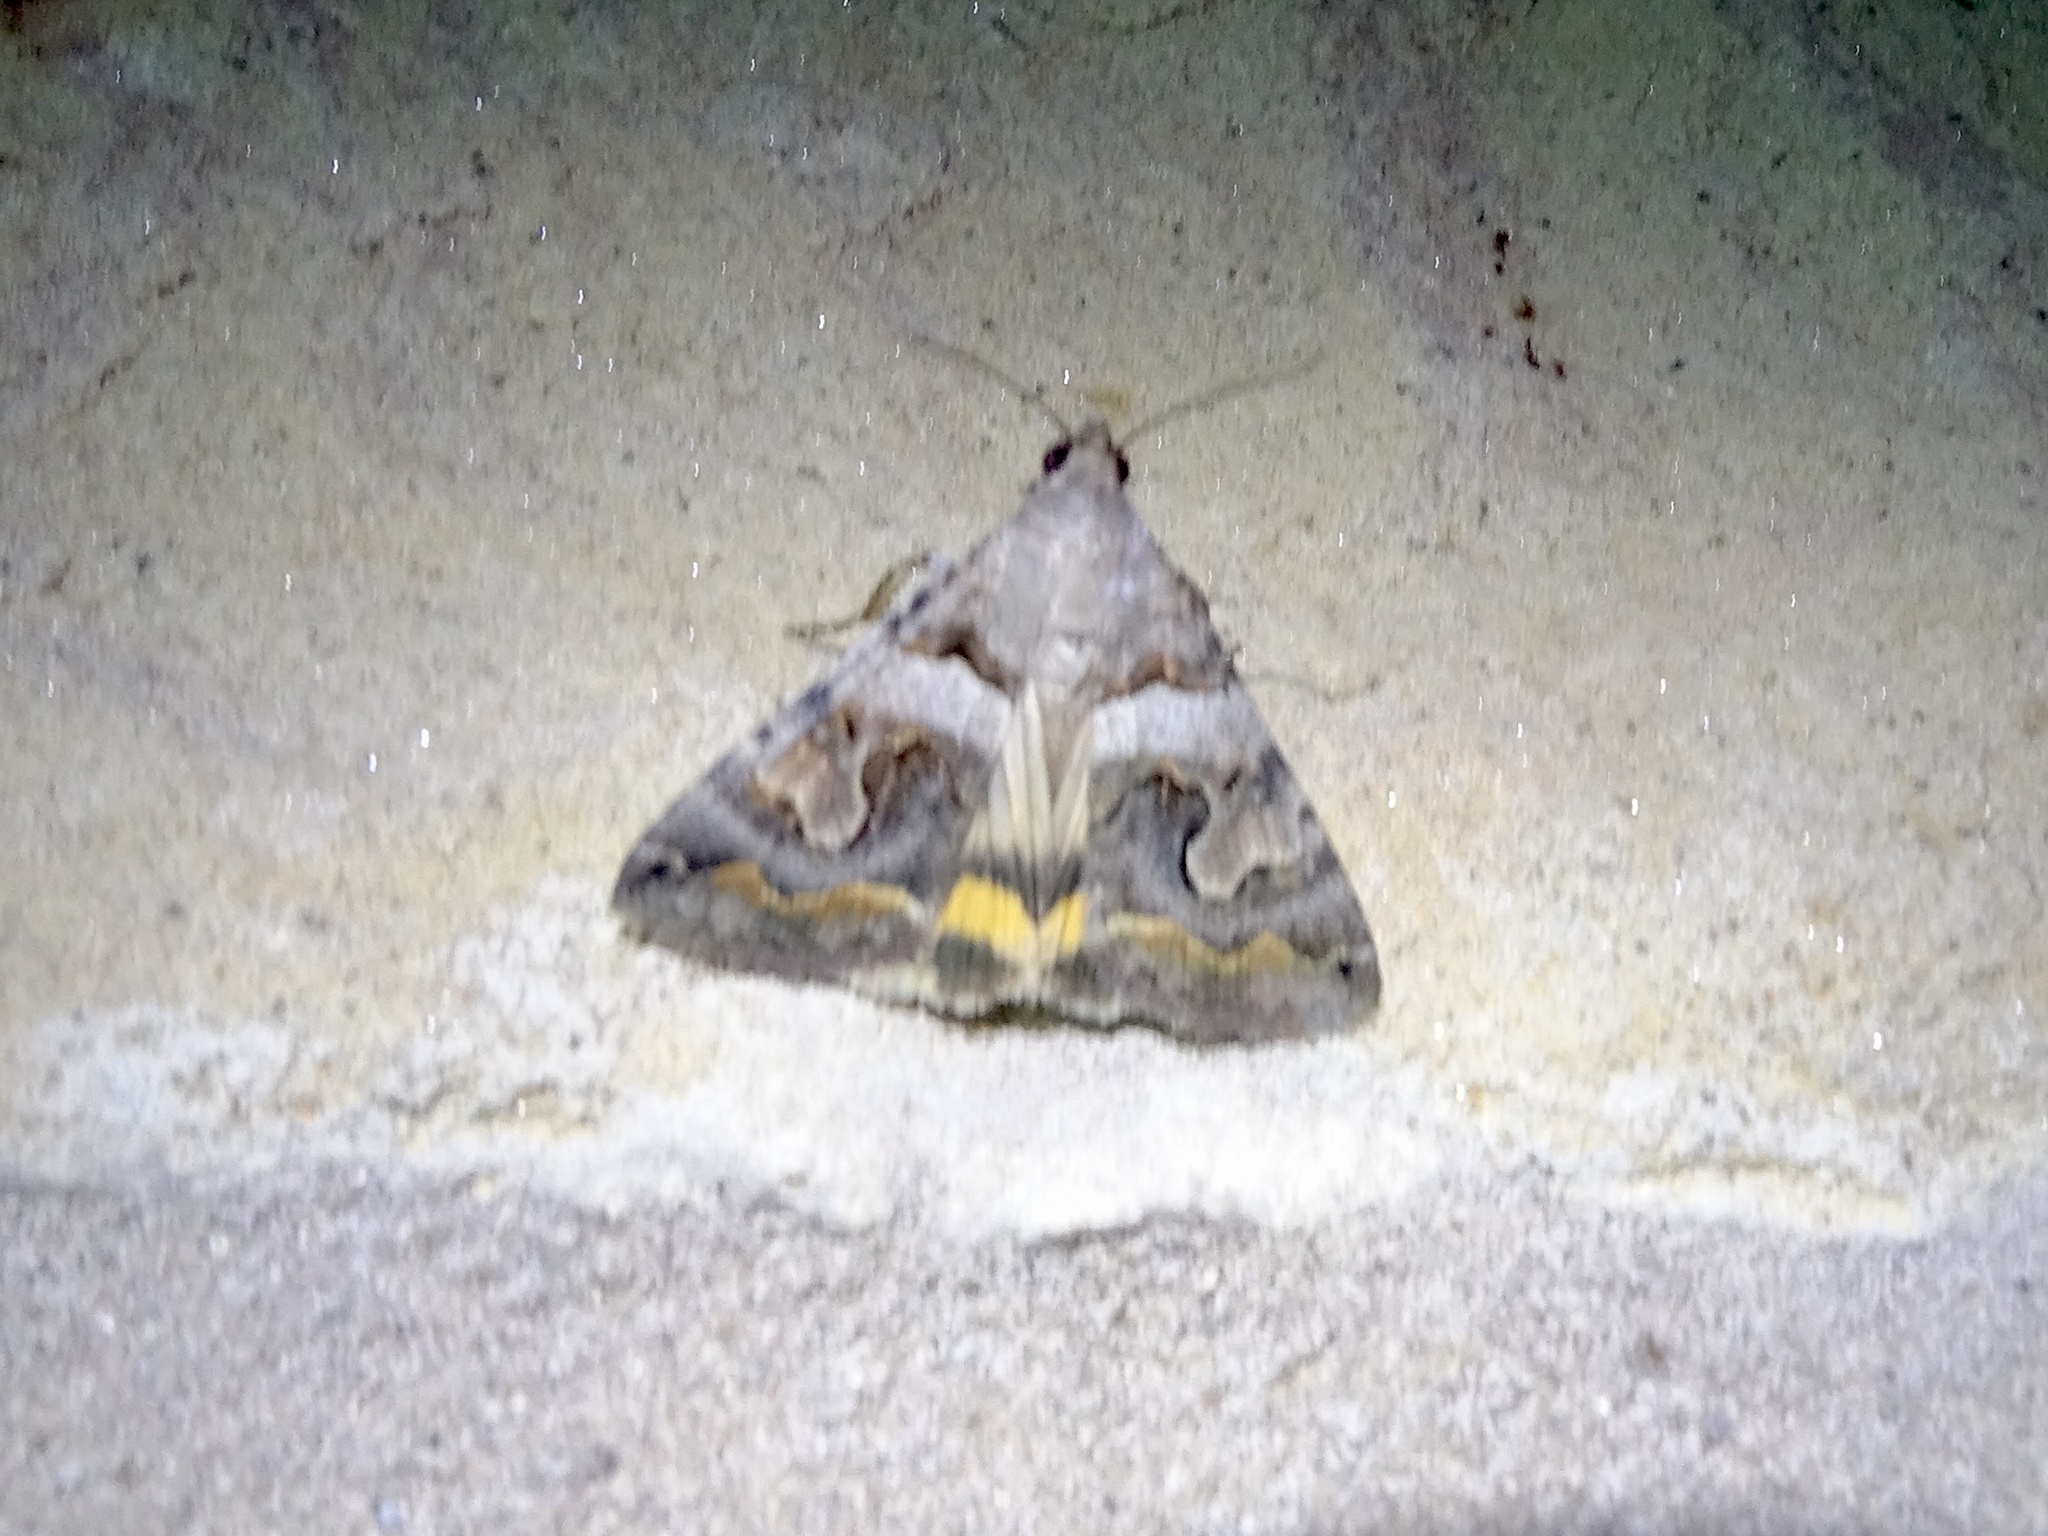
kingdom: Animalia
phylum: Arthropoda
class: Insecta
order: Lepidoptera
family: Erebidae
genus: Bulia
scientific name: Bulia deducta
